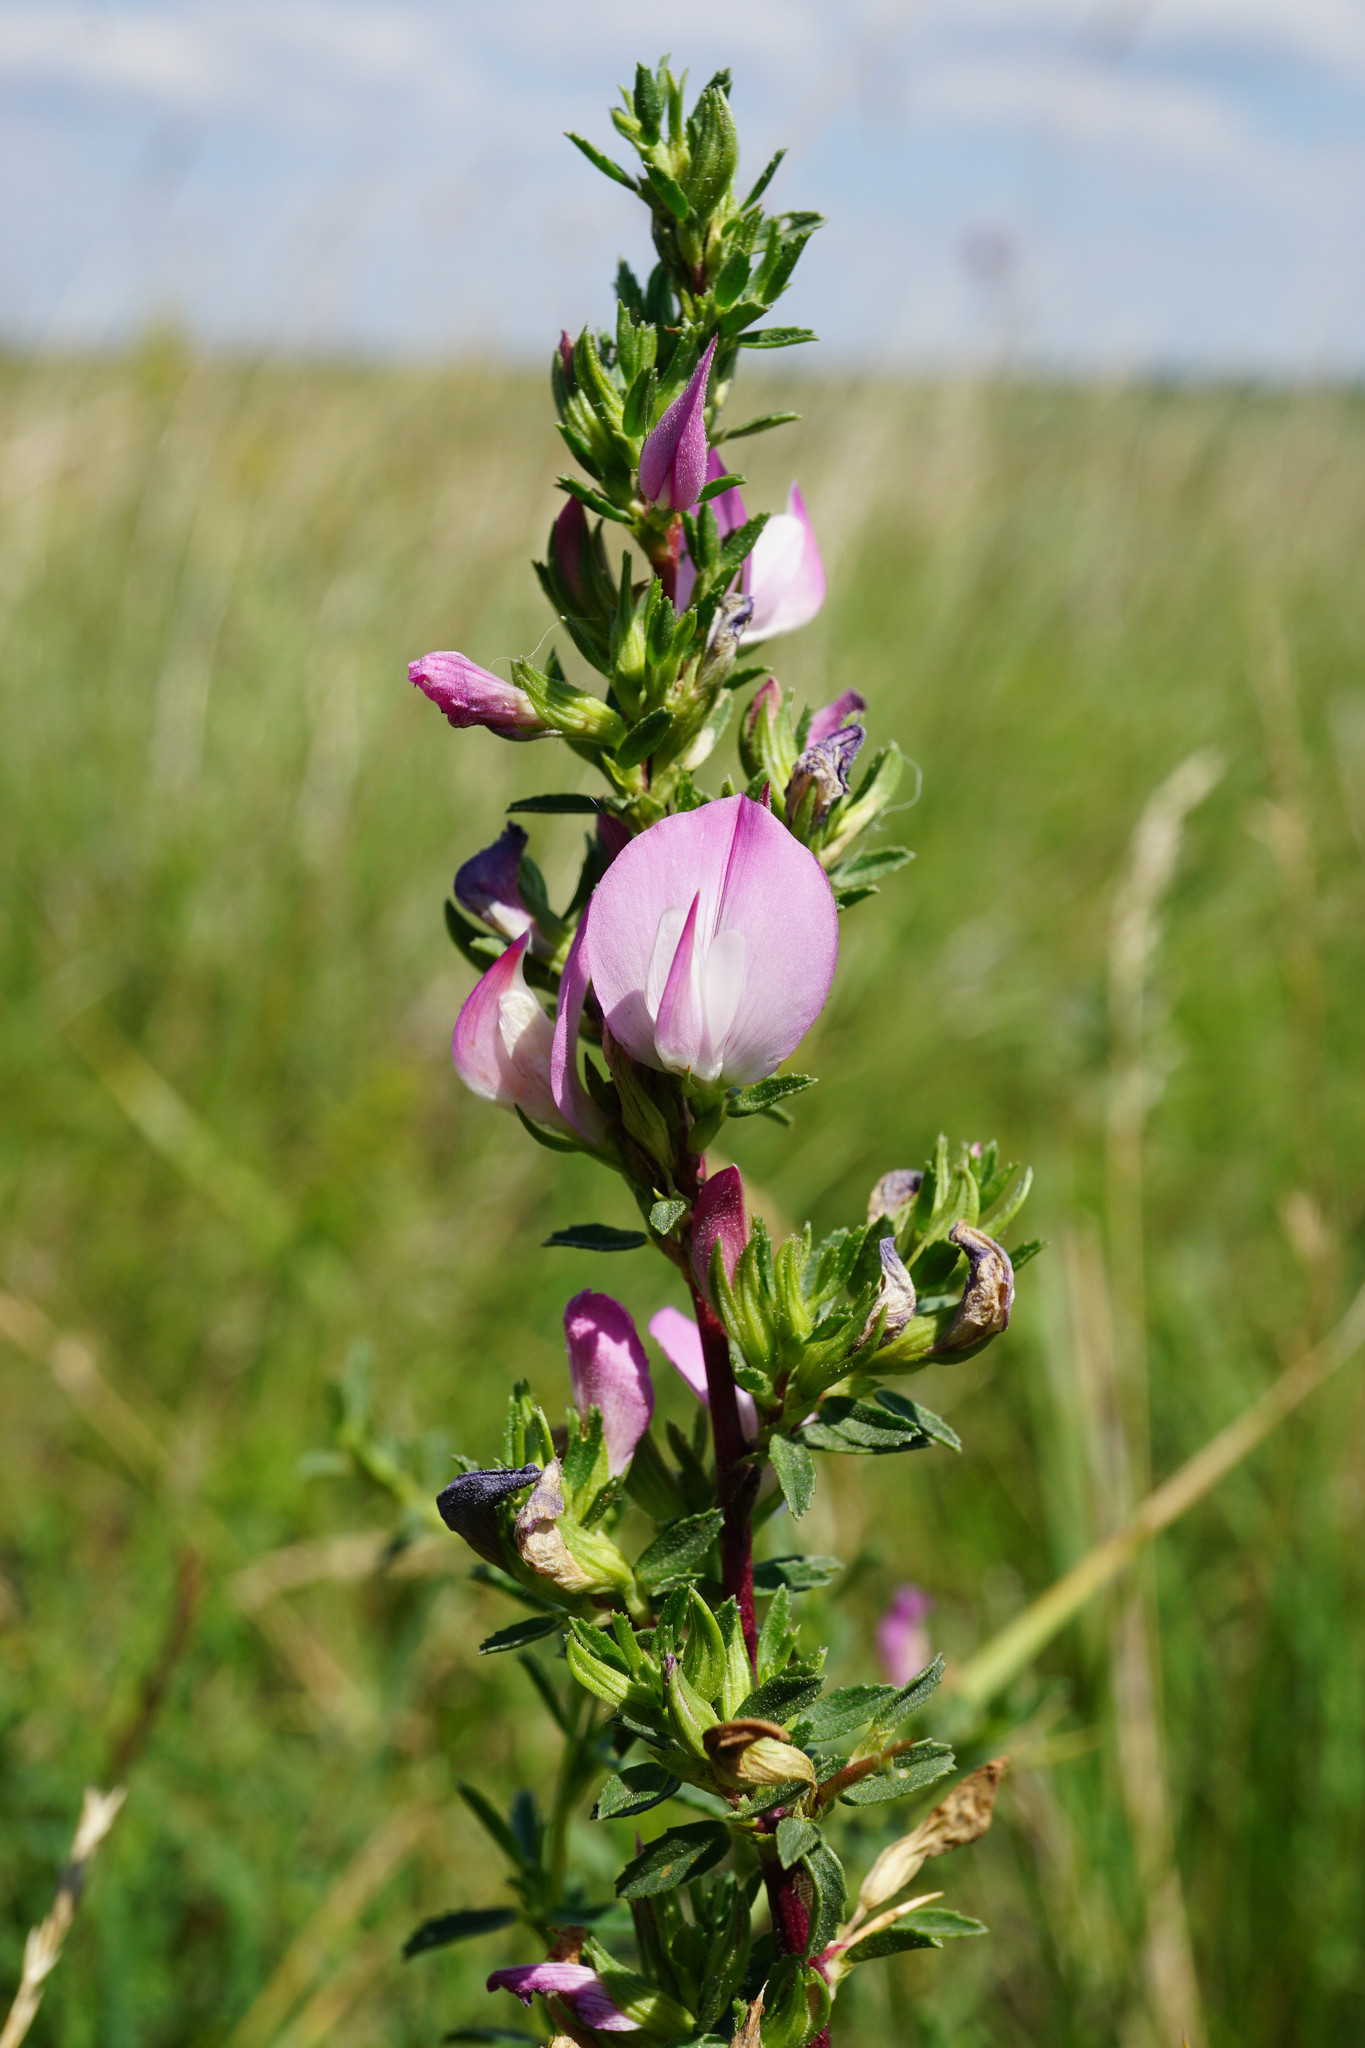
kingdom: Plantae
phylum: Tracheophyta
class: Magnoliopsida
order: Fabales
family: Fabaceae
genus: Ononis
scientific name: Ononis spinosa
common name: Spiny restharrow
